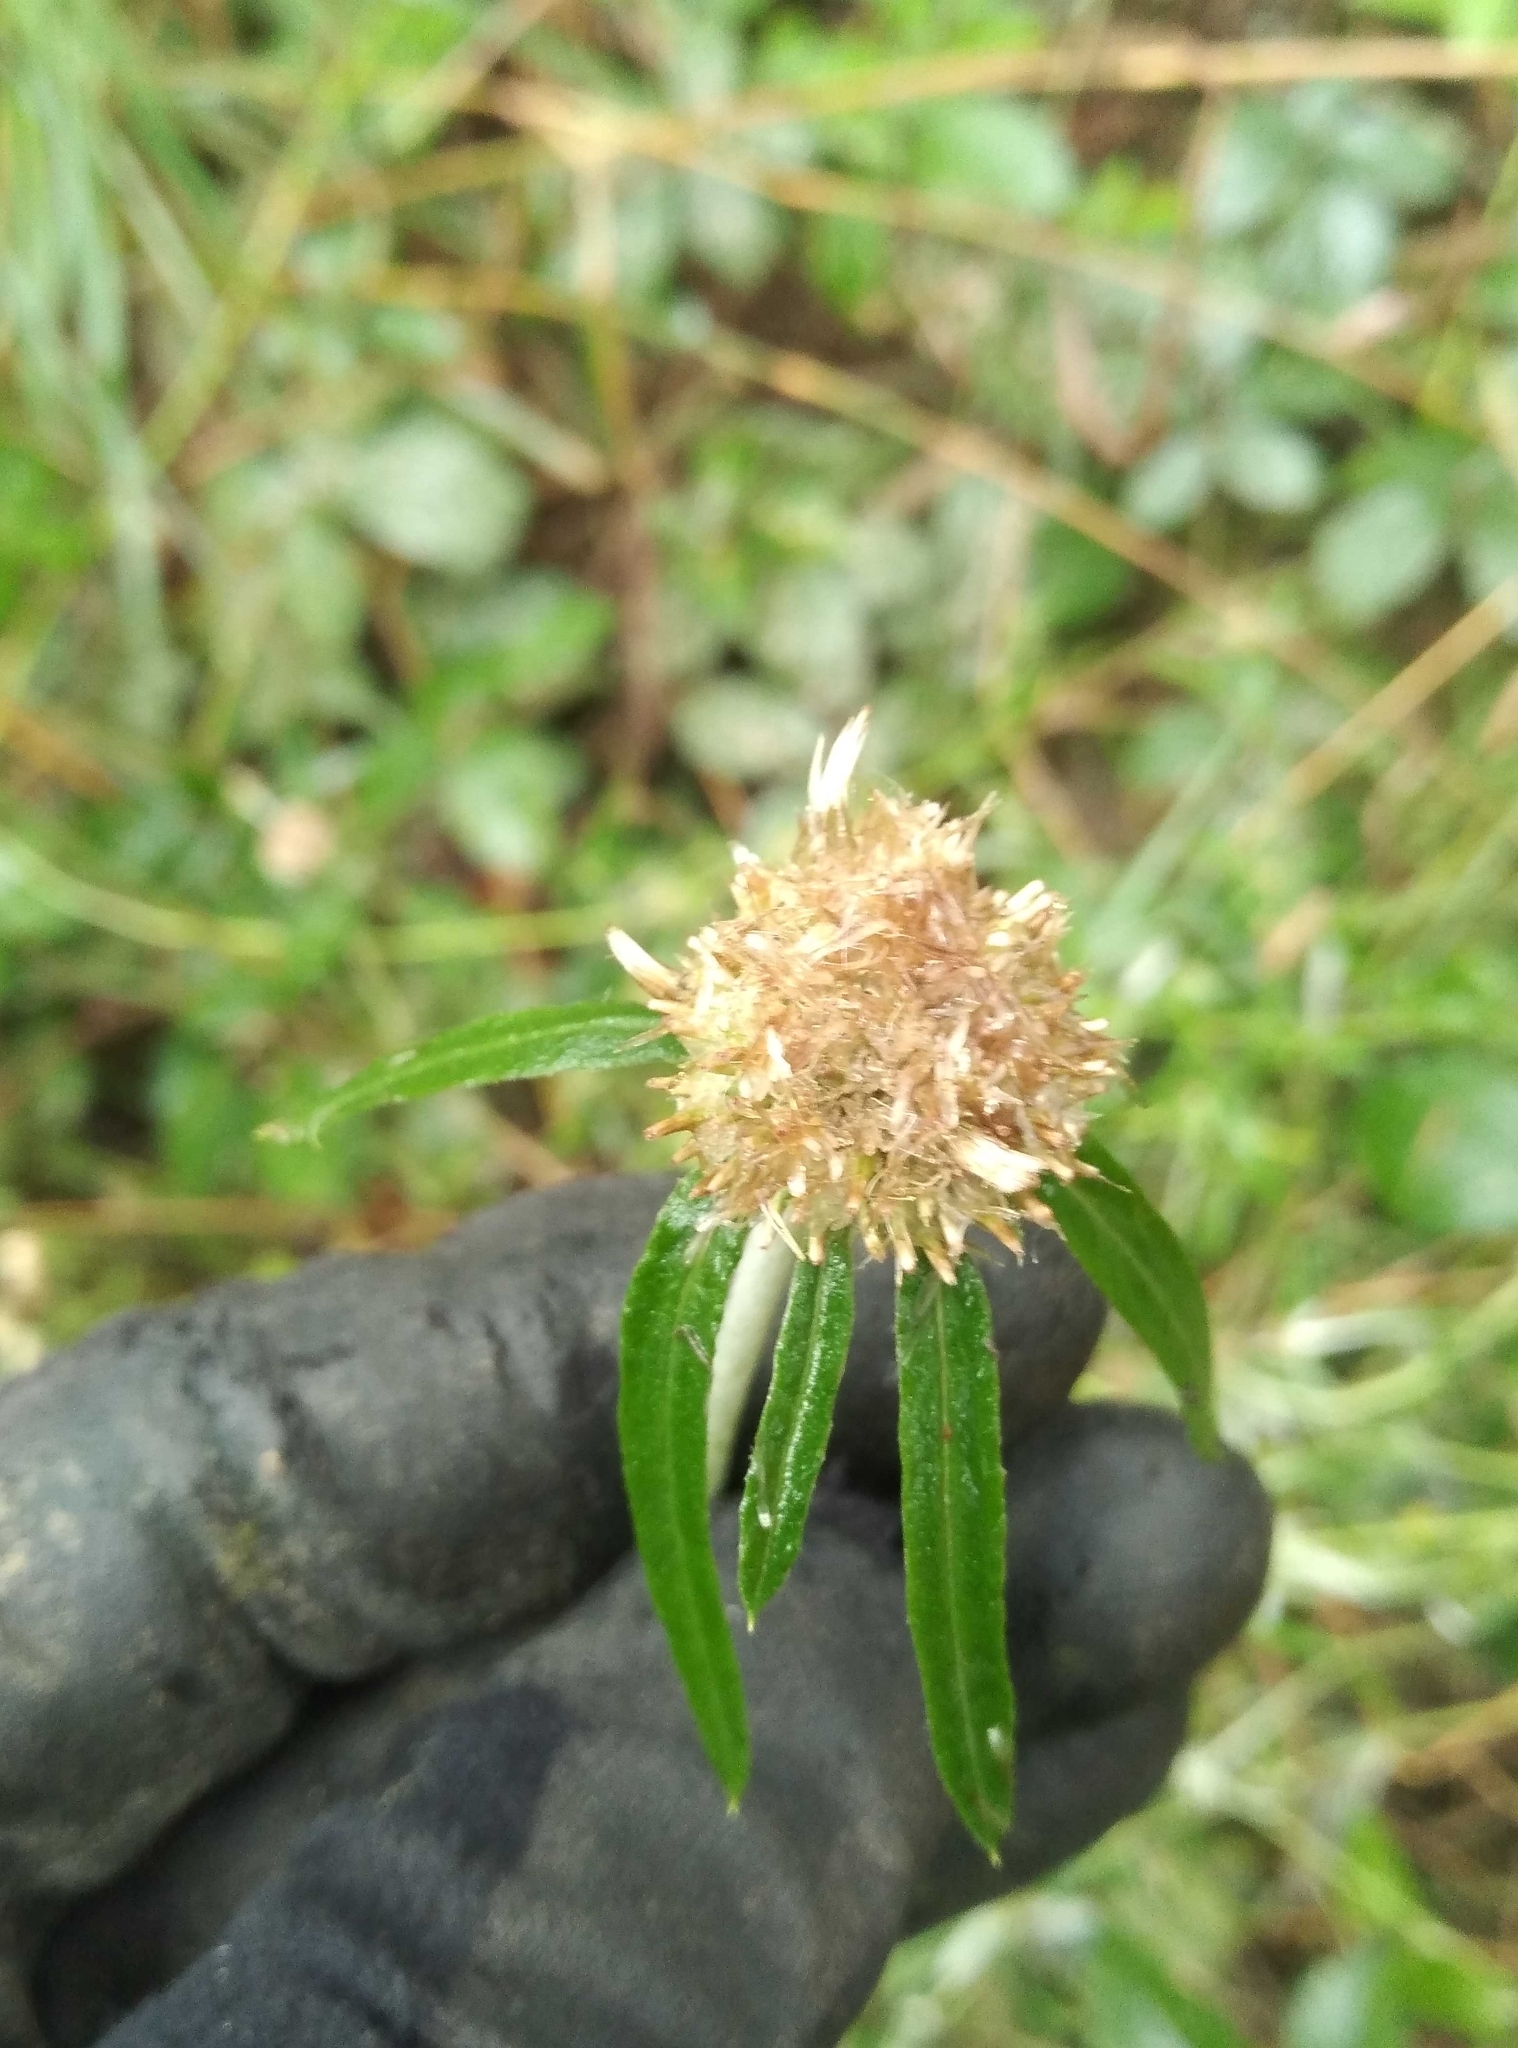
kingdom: Plantae
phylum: Tracheophyta
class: Magnoliopsida
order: Asterales
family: Asteraceae
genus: Euchiton
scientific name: Euchiton sphaericus
